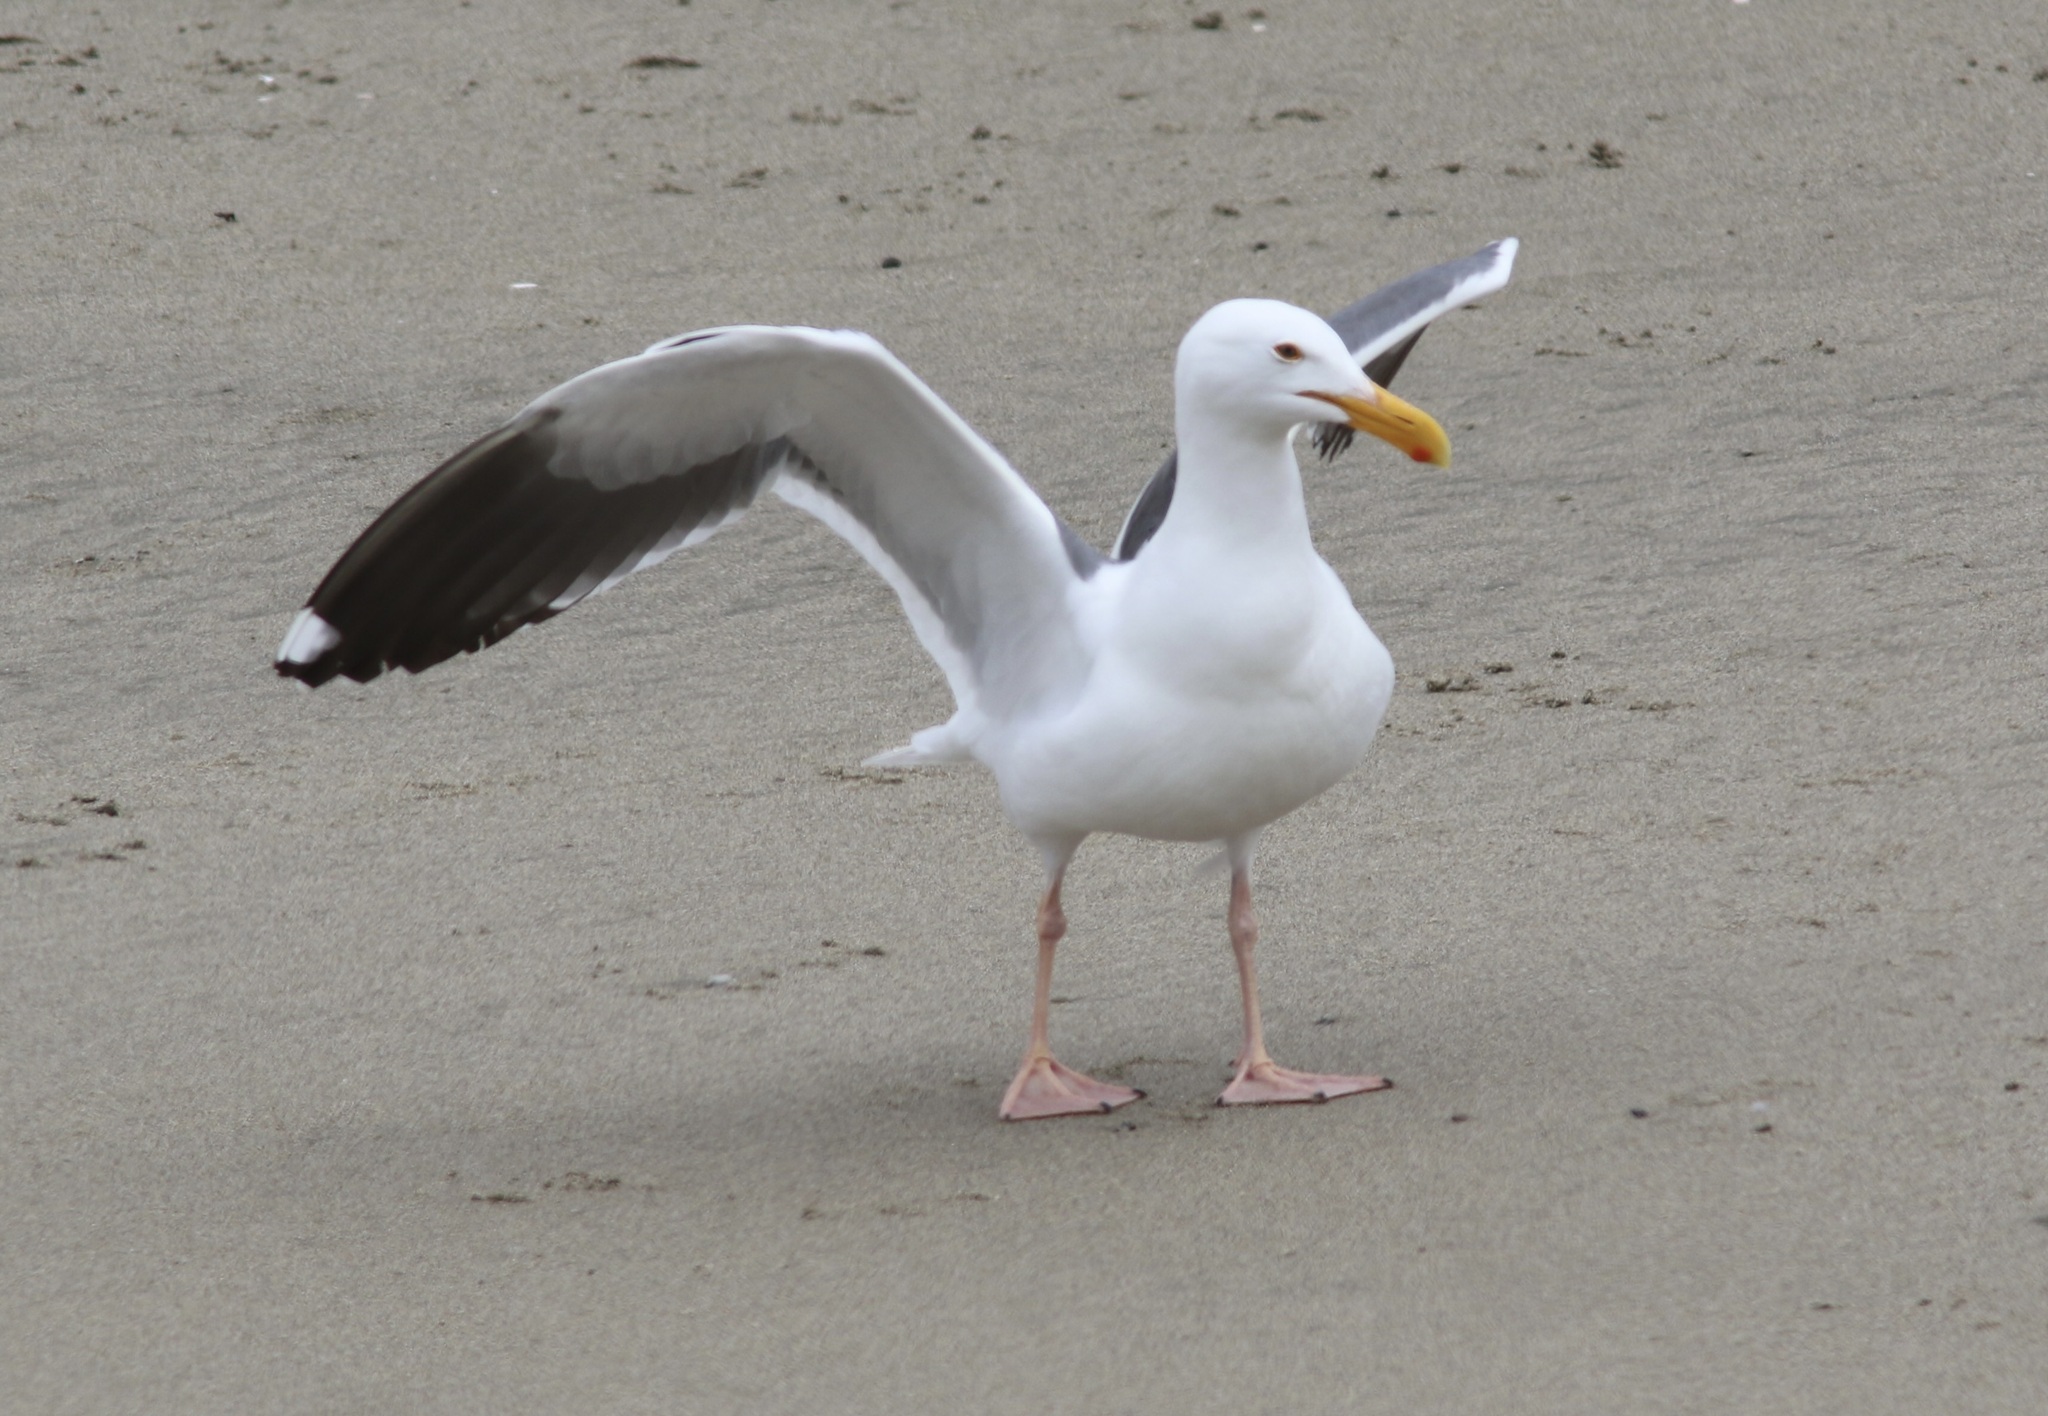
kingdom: Animalia
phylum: Chordata
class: Aves
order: Charadriiformes
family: Laridae
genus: Larus
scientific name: Larus occidentalis
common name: Western gull
